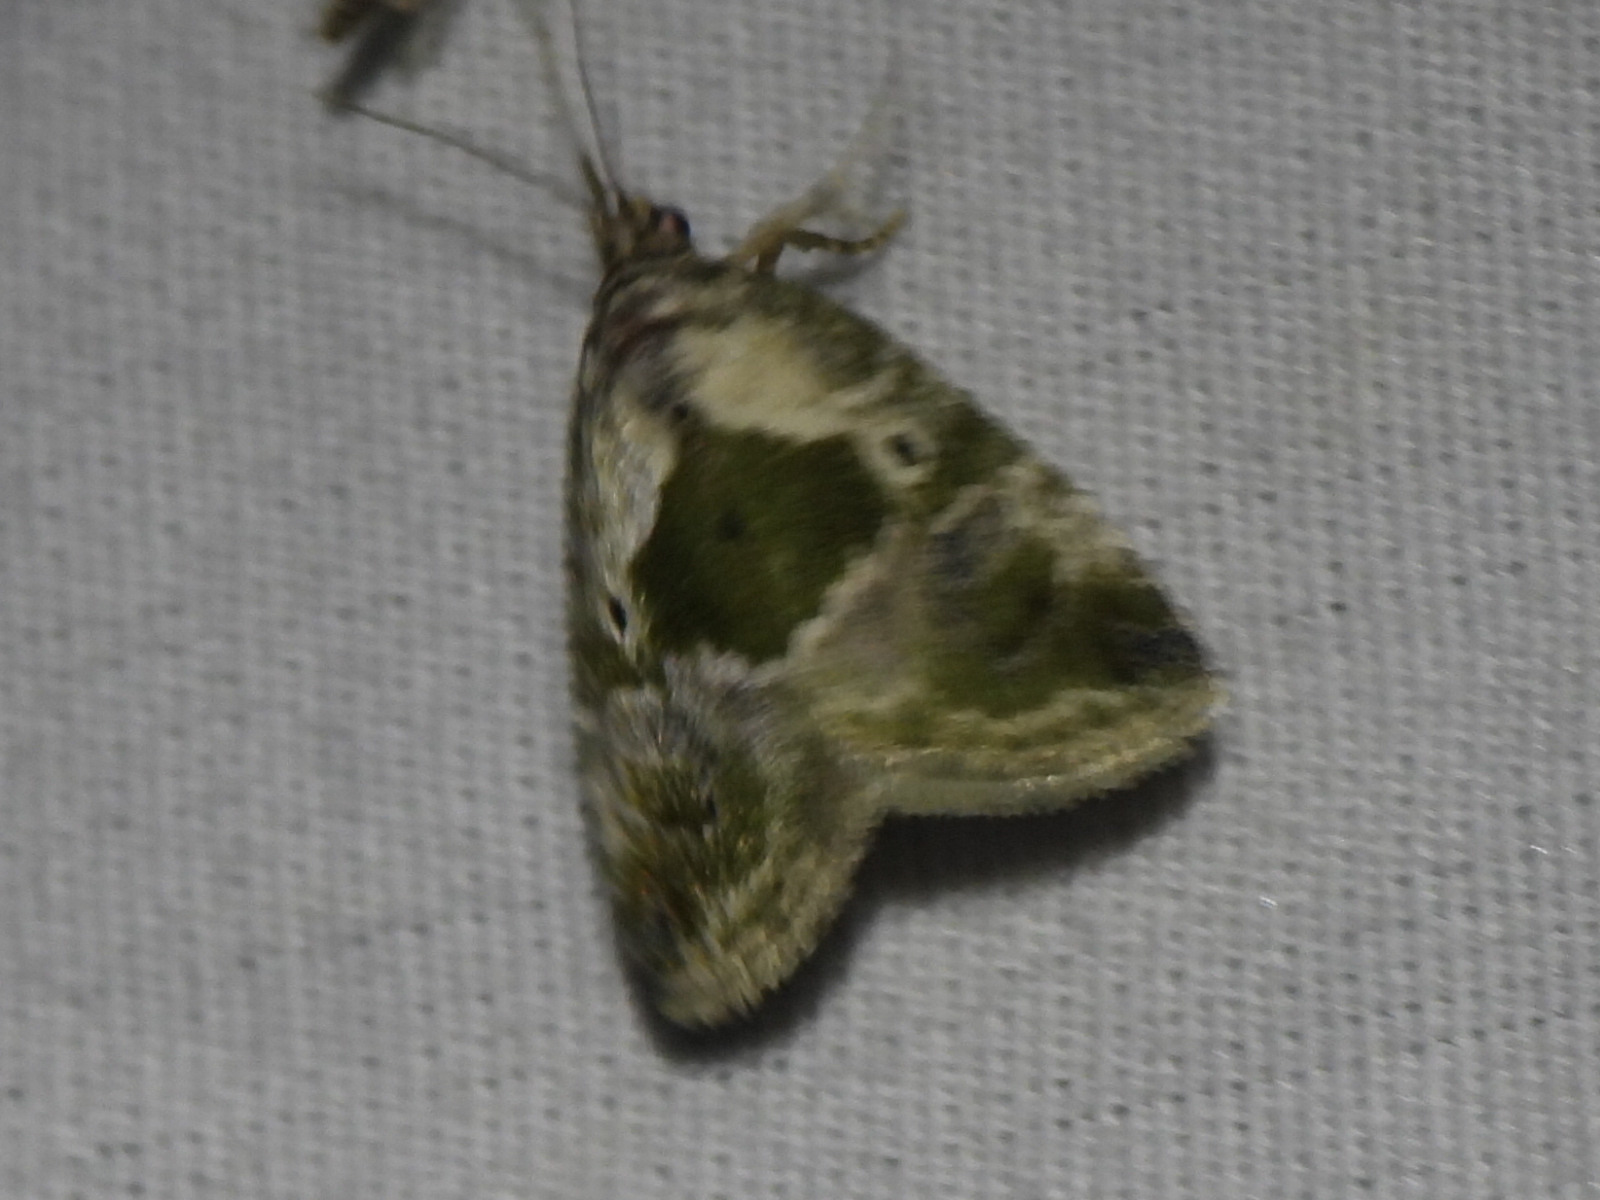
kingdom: Animalia
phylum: Arthropoda
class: Insecta
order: Lepidoptera
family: Noctuidae
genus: Maliattha
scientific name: Maliattha synochitis
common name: Black-dotted glyph
